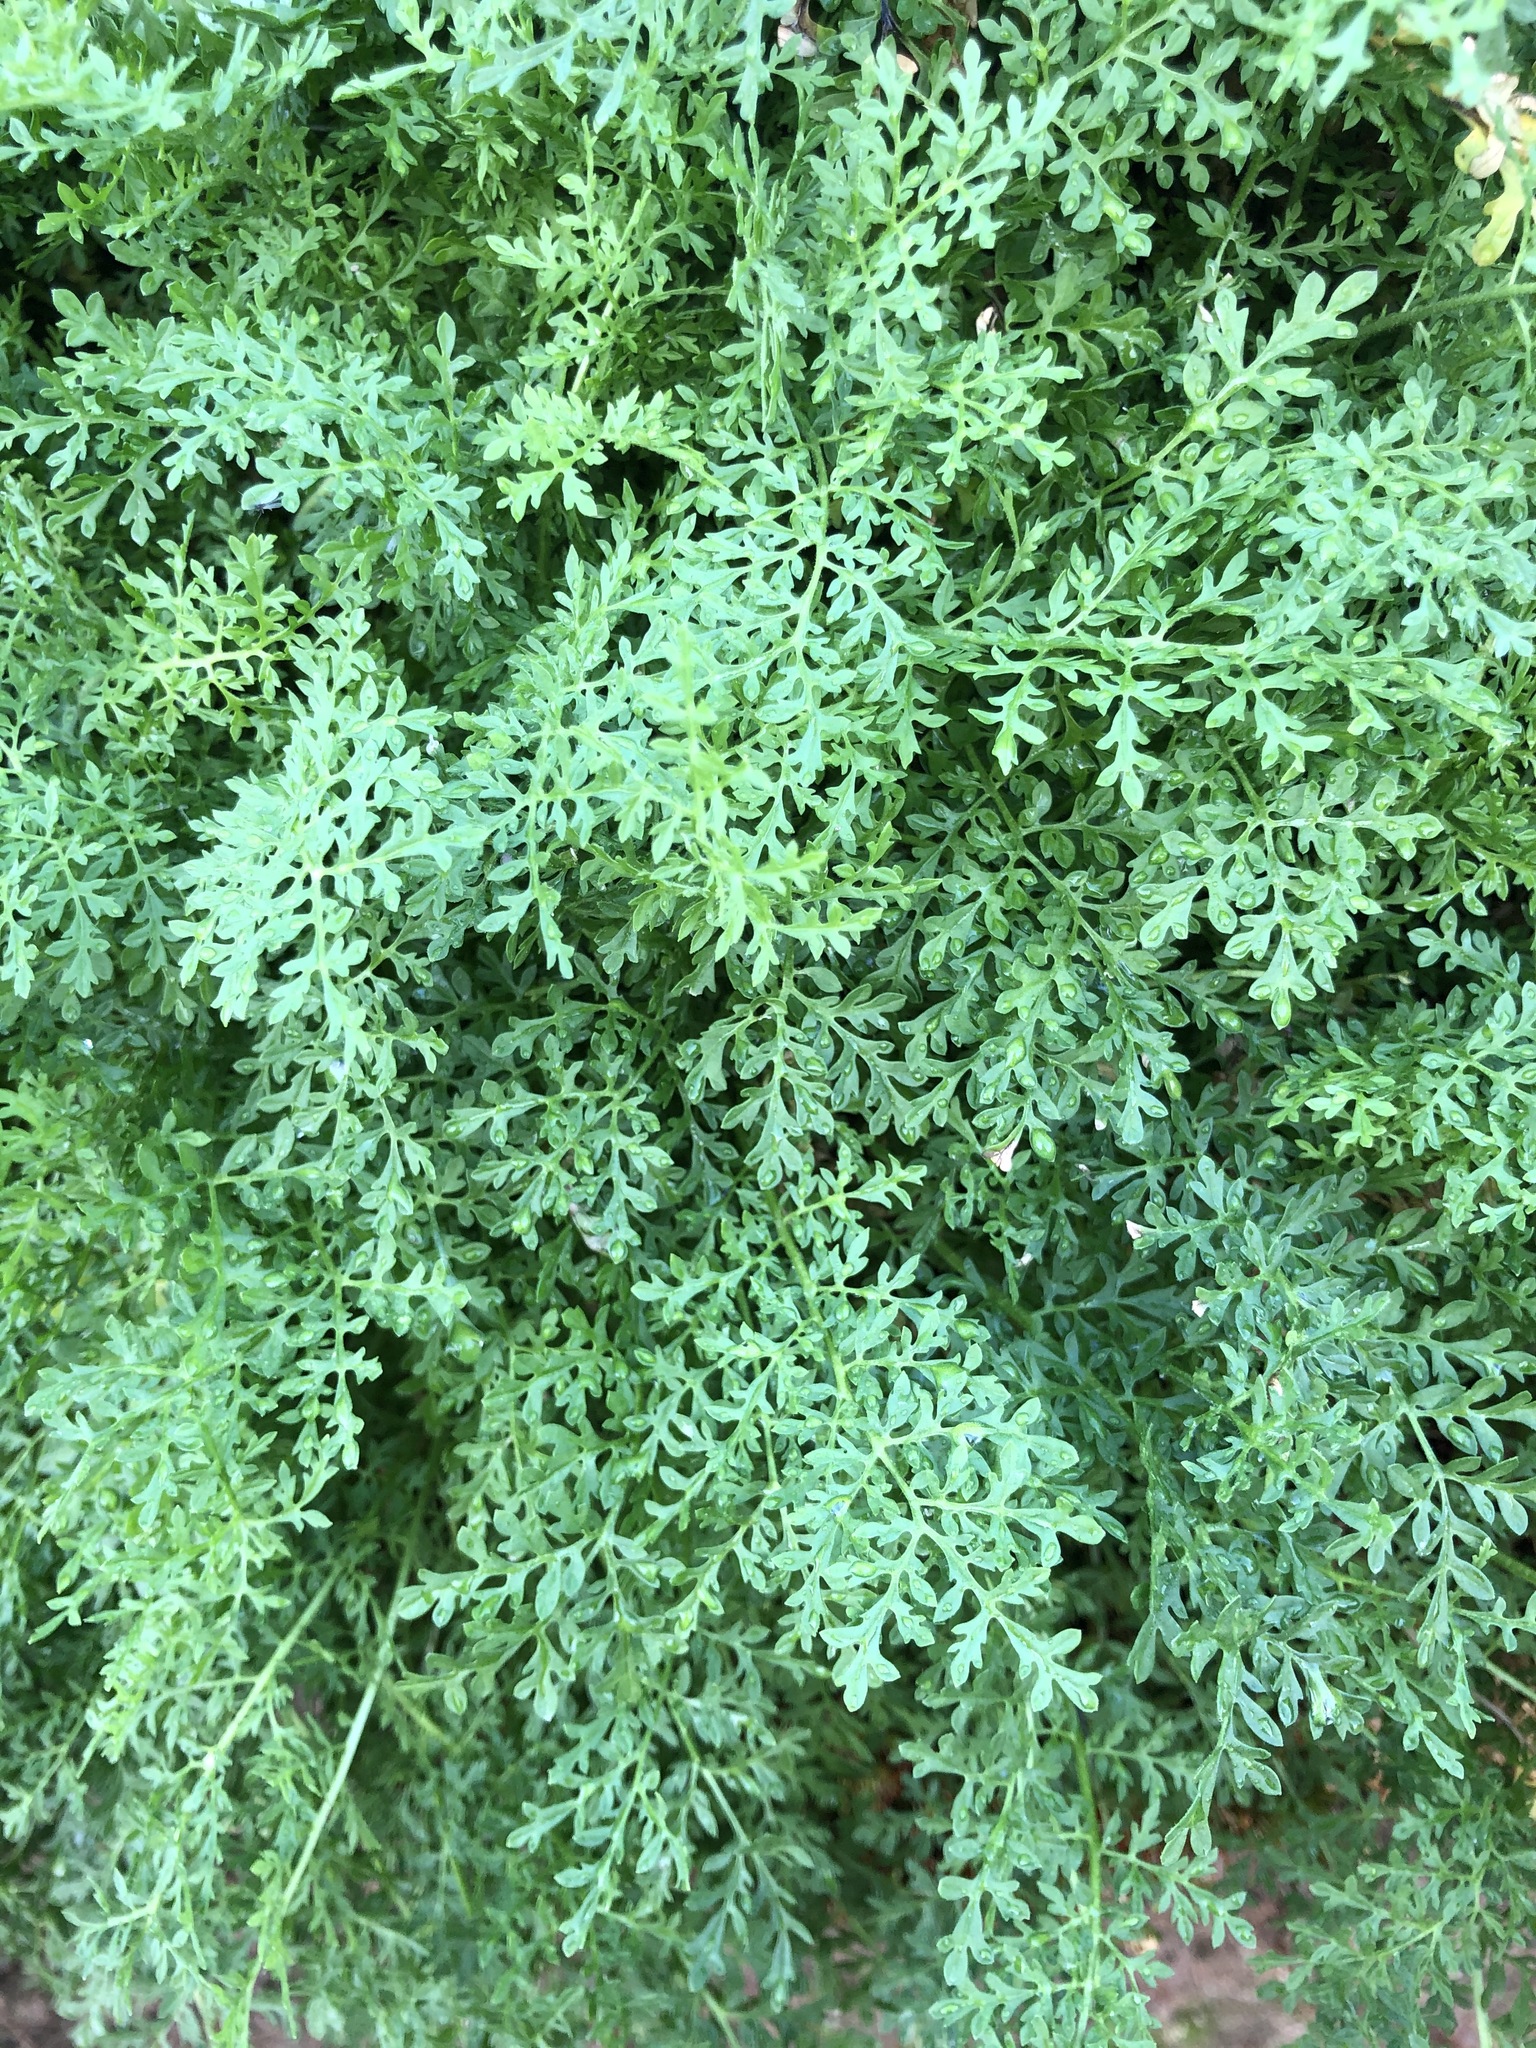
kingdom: Plantae
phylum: Tracheophyta
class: Magnoliopsida
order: Brassicales
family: Brassicaceae
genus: Descurainia
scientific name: Descurainia sophioides
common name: Northern tansy mustard
